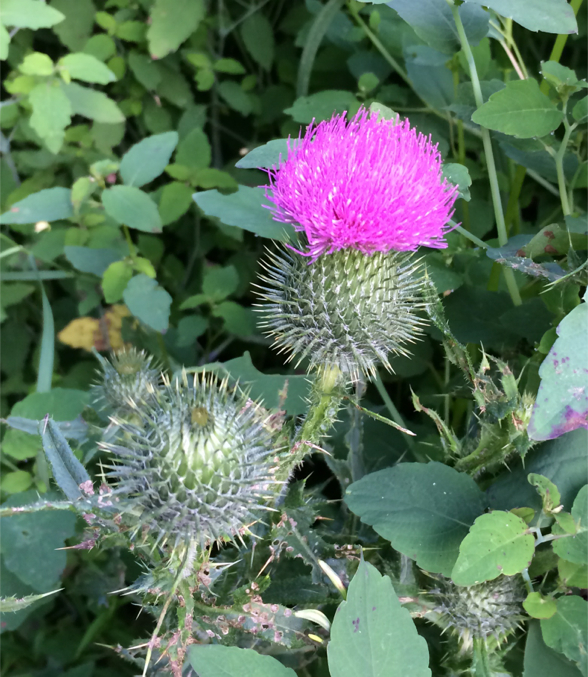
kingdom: Plantae
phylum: Tracheophyta
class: Magnoliopsida
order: Asterales
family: Asteraceae
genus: Cirsium
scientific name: Cirsium vulgare
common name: Bull thistle
